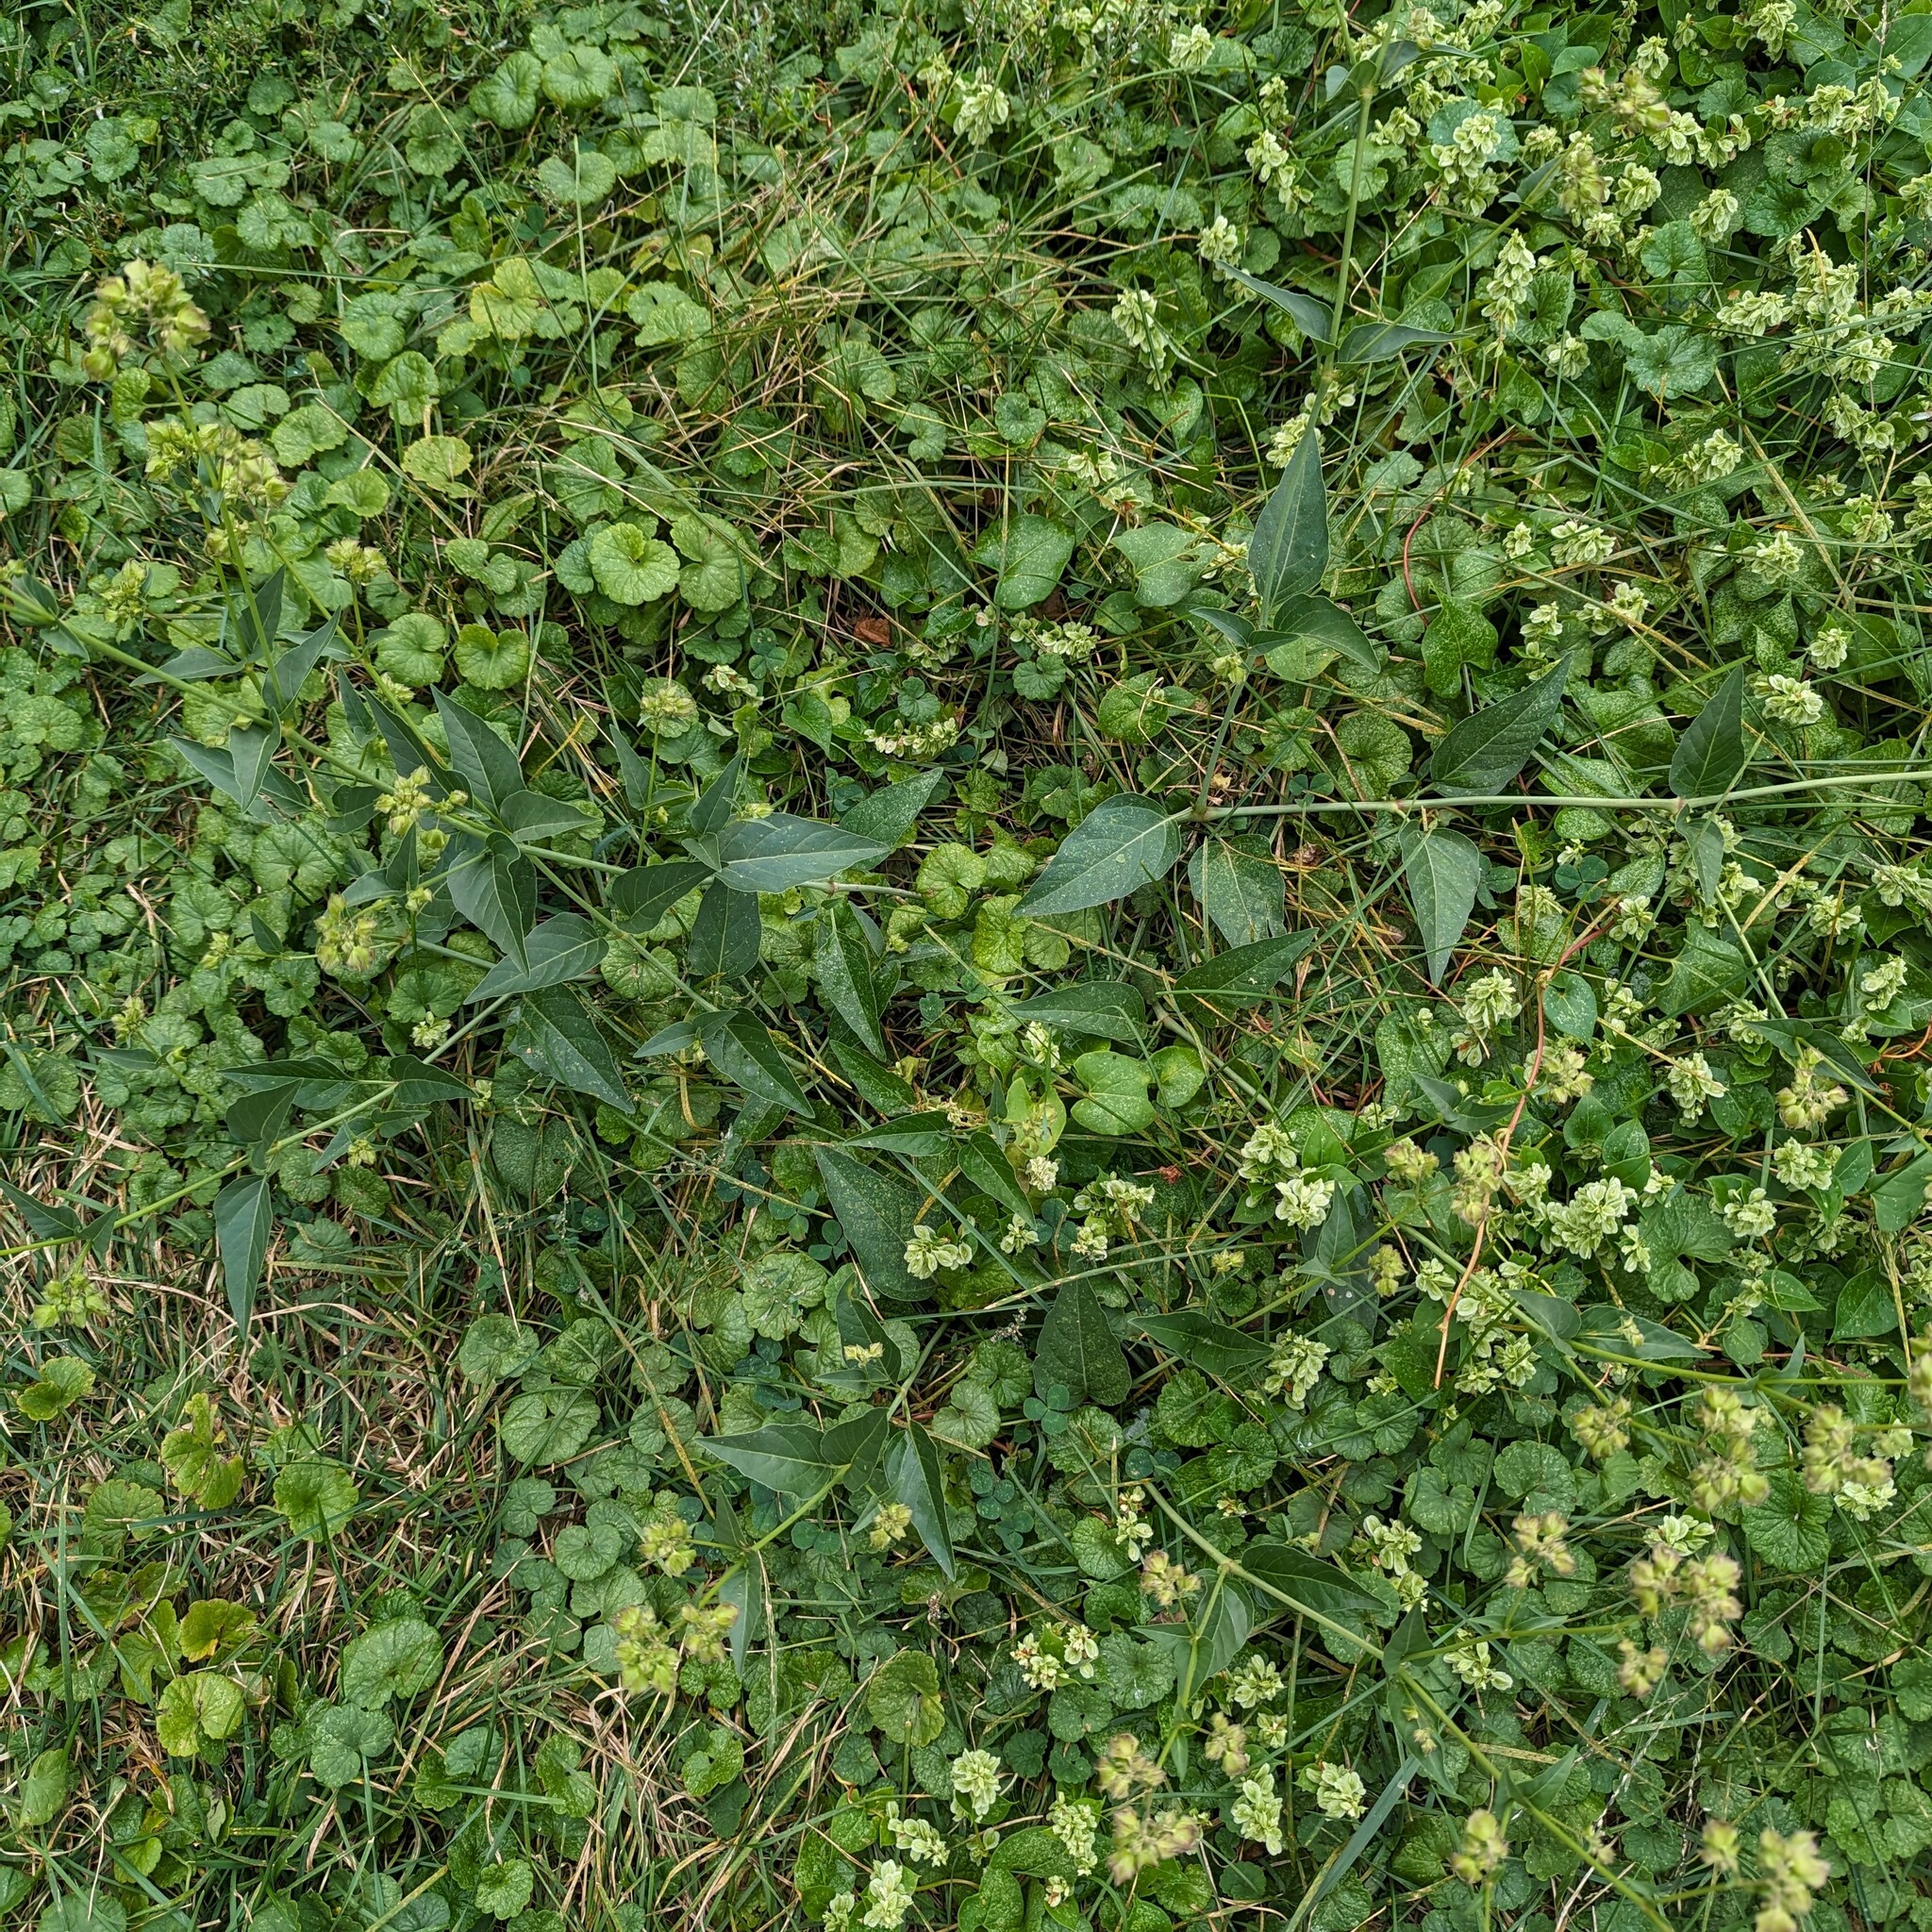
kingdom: Plantae
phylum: Tracheophyta
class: Magnoliopsida
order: Caryophyllales
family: Nyctaginaceae
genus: Mirabilis
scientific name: Mirabilis nyctaginea
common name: Umbrella wort
